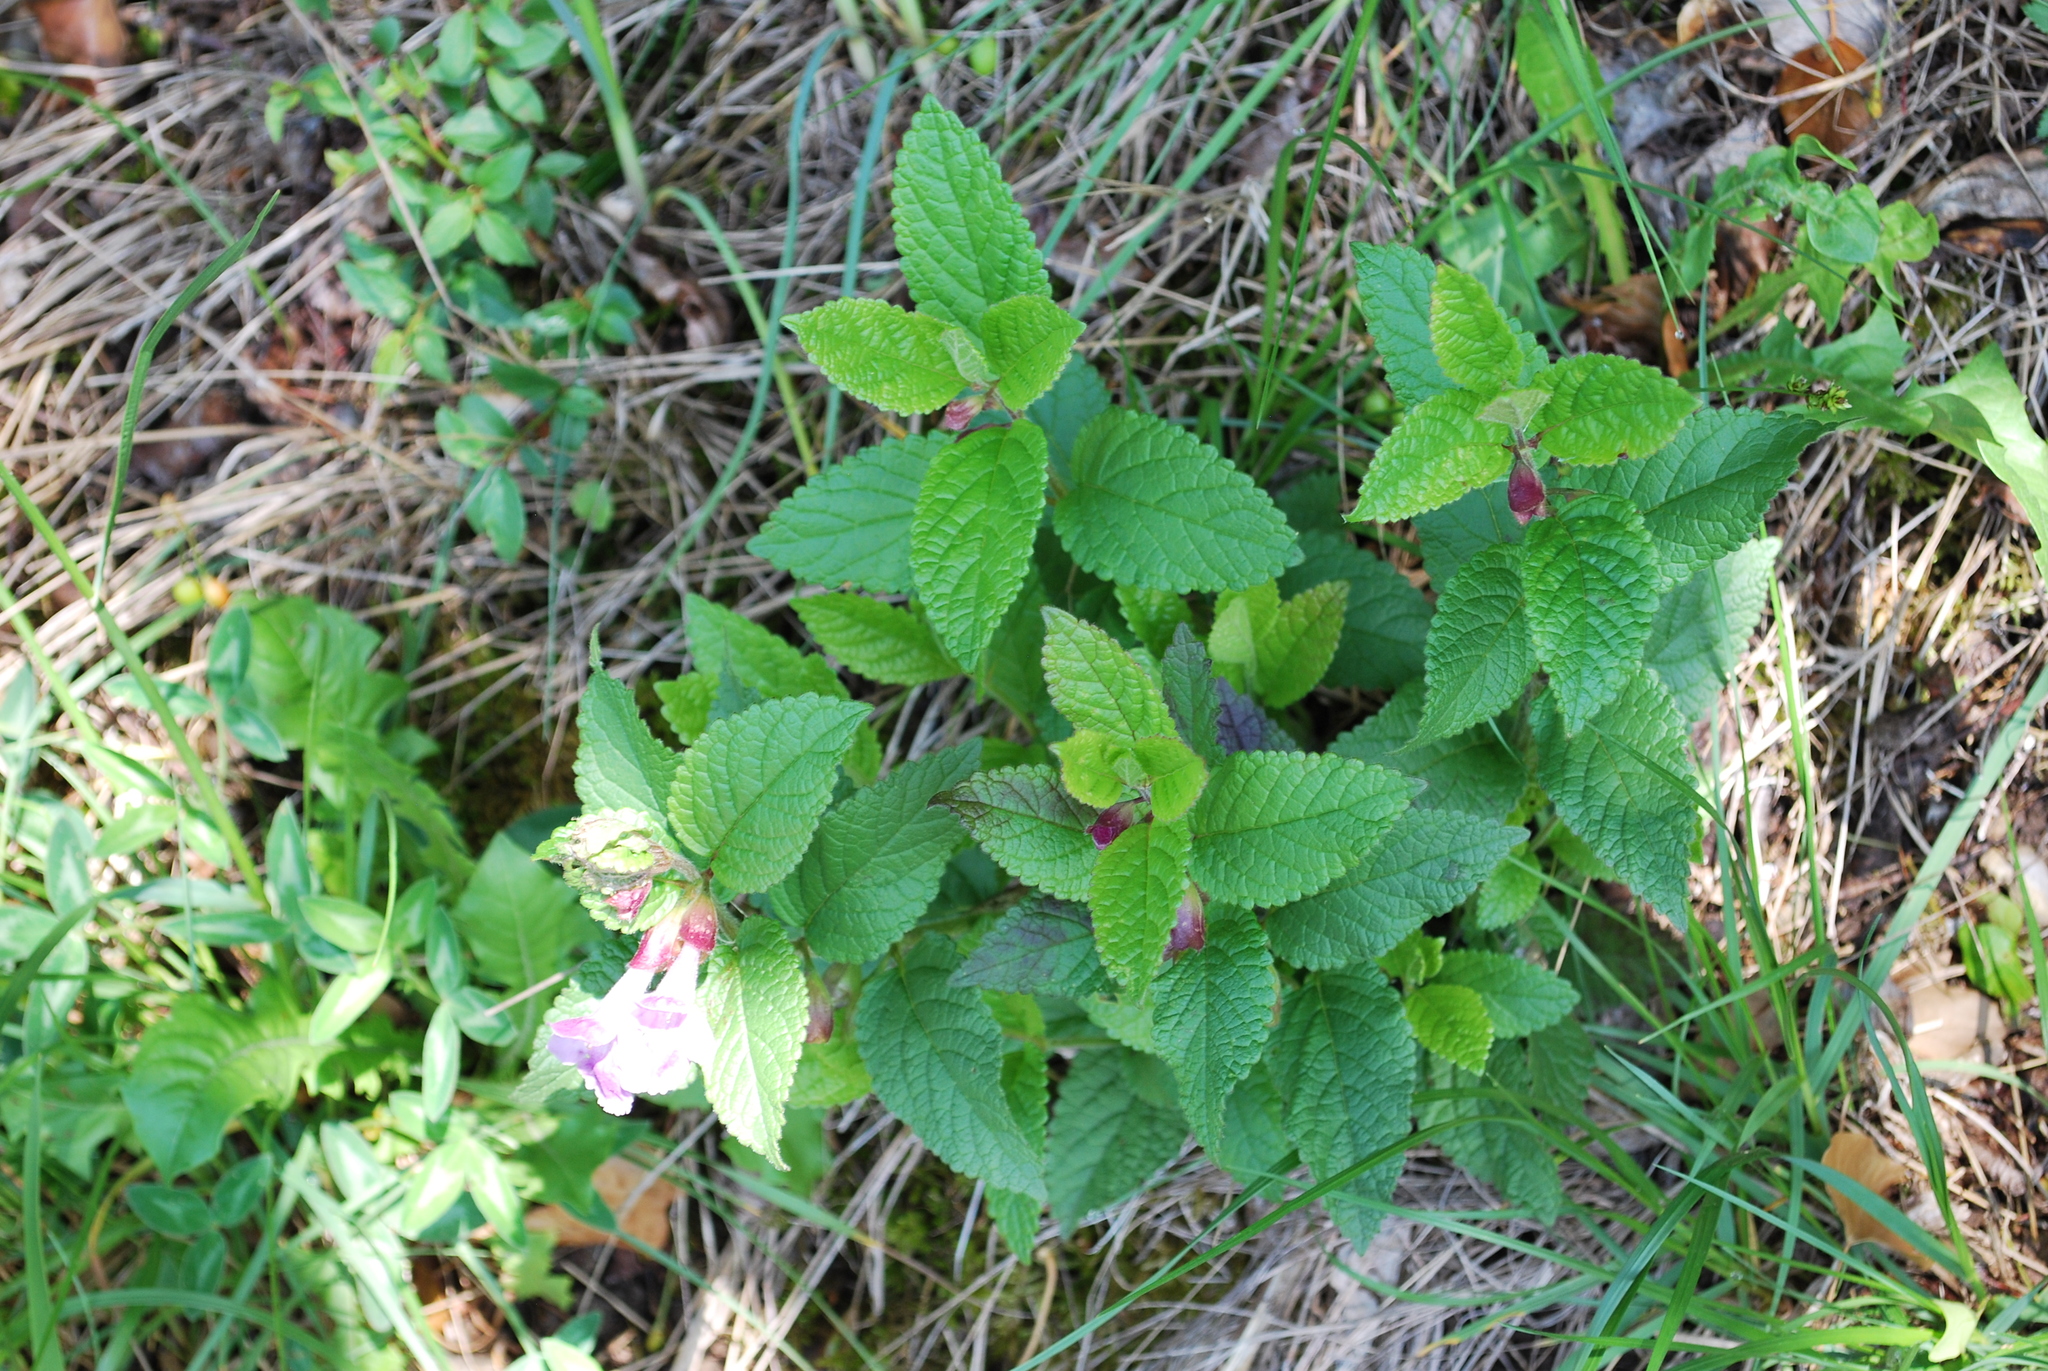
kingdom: Plantae
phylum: Tracheophyta
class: Magnoliopsida
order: Lamiales
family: Lamiaceae
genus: Melittis
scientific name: Melittis melissophyllum
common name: Bastard balm
